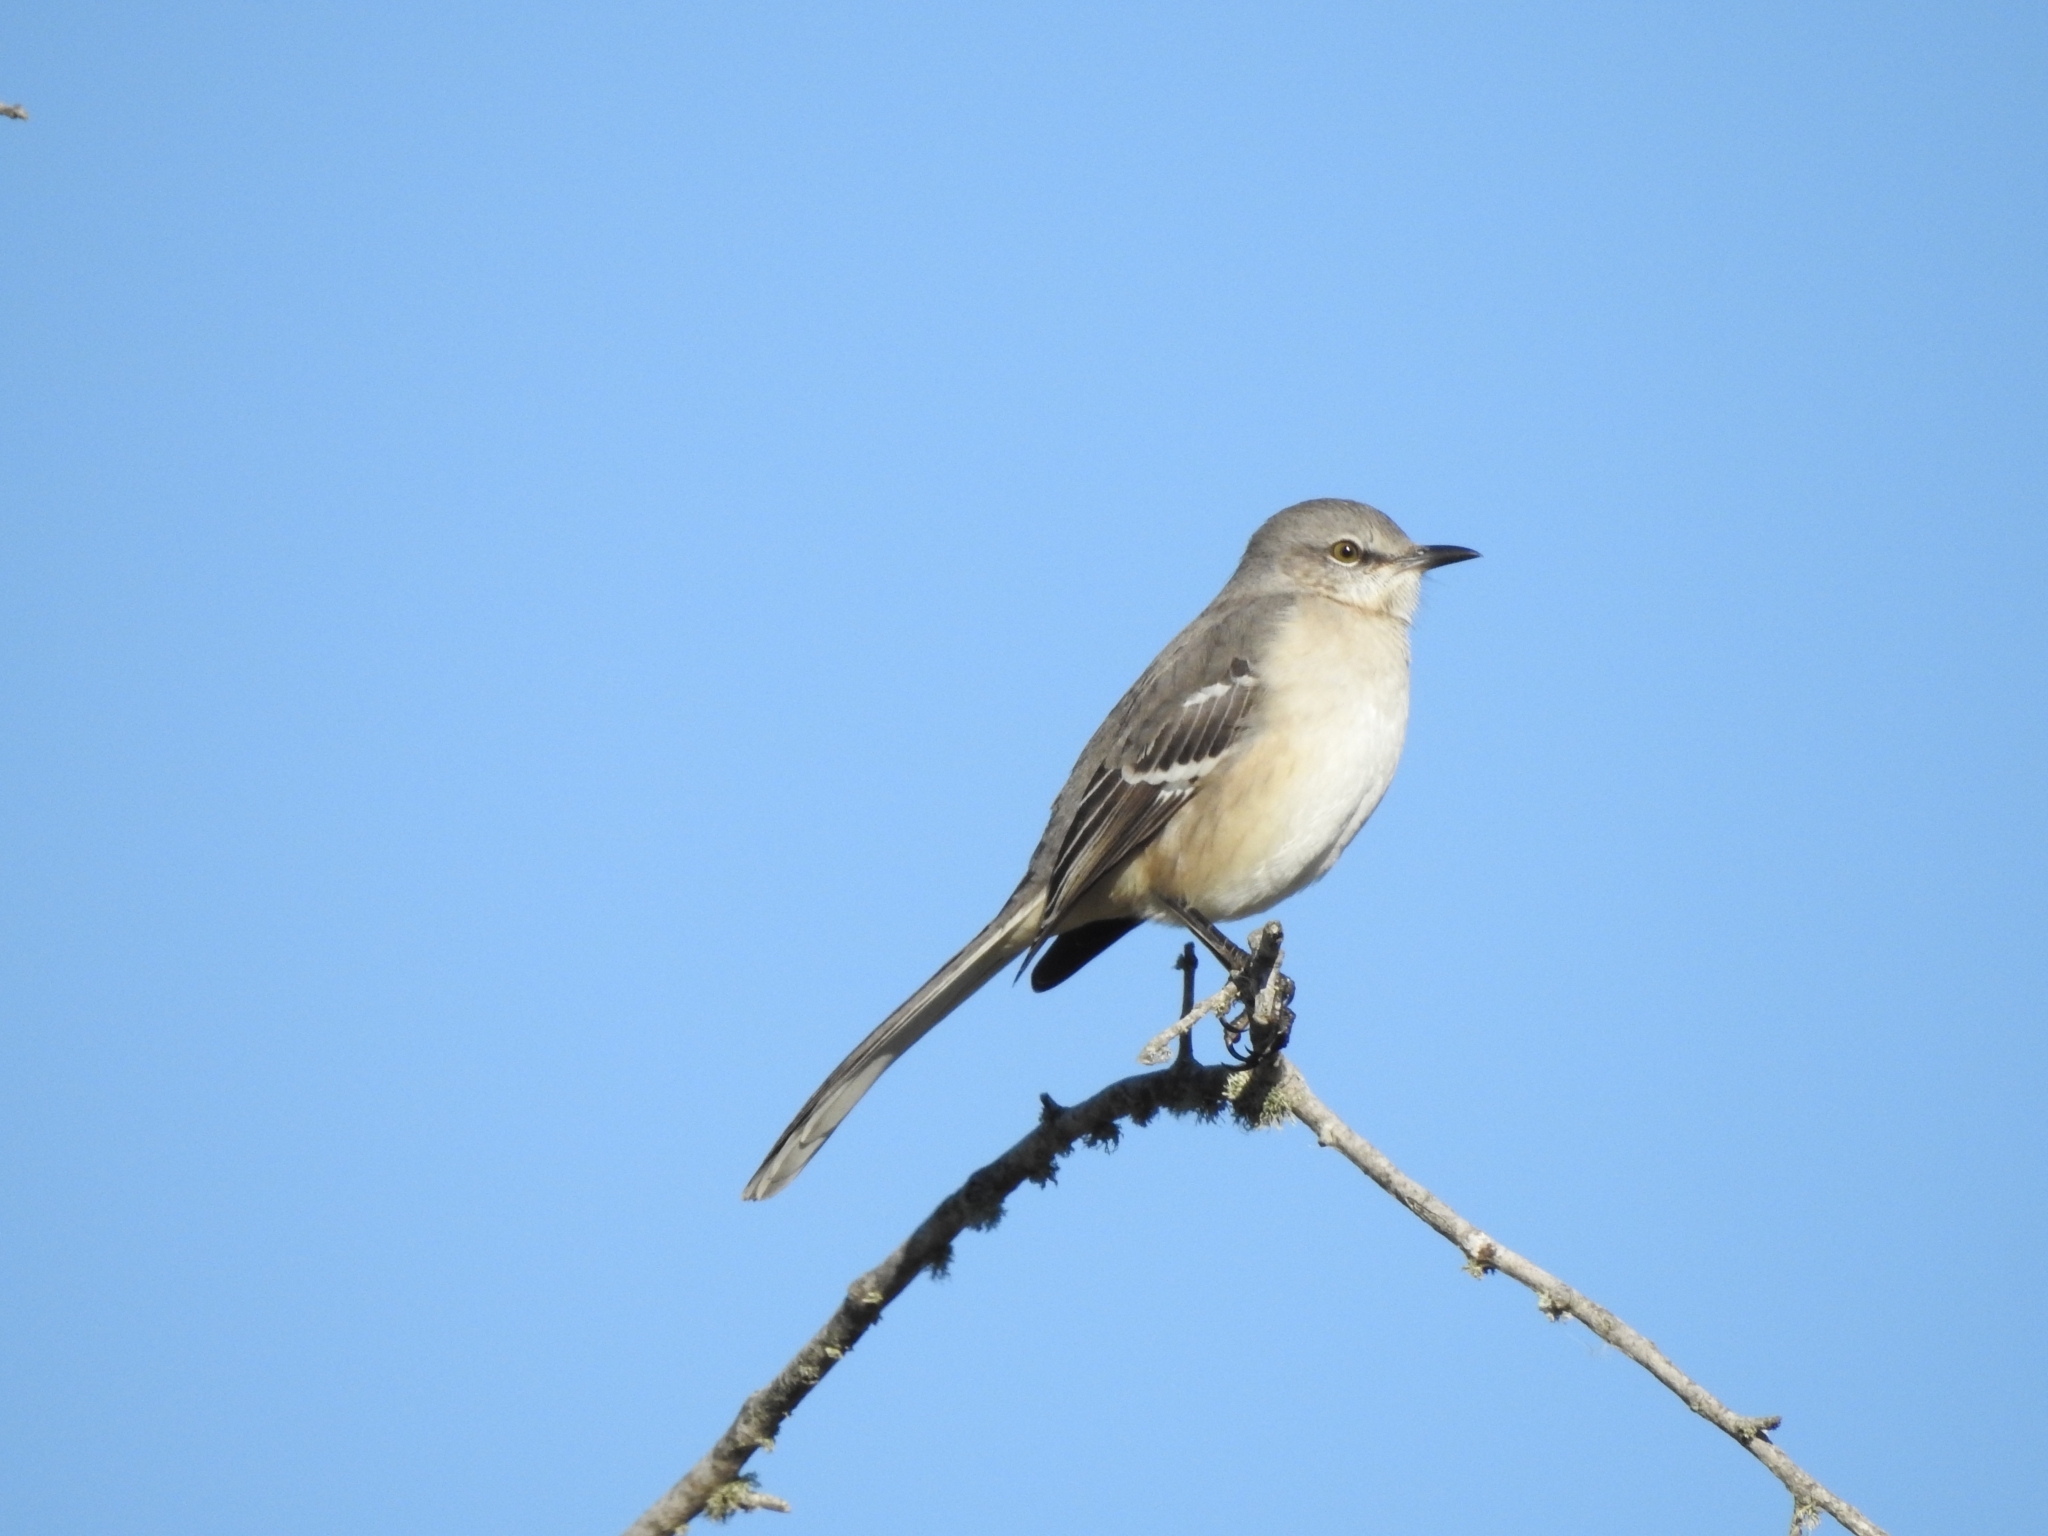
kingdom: Animalia
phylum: Chordata
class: Aves
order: Passeriformes
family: Mimidae
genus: Mimus
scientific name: Mimus polyglottos
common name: Northern mockingbird
